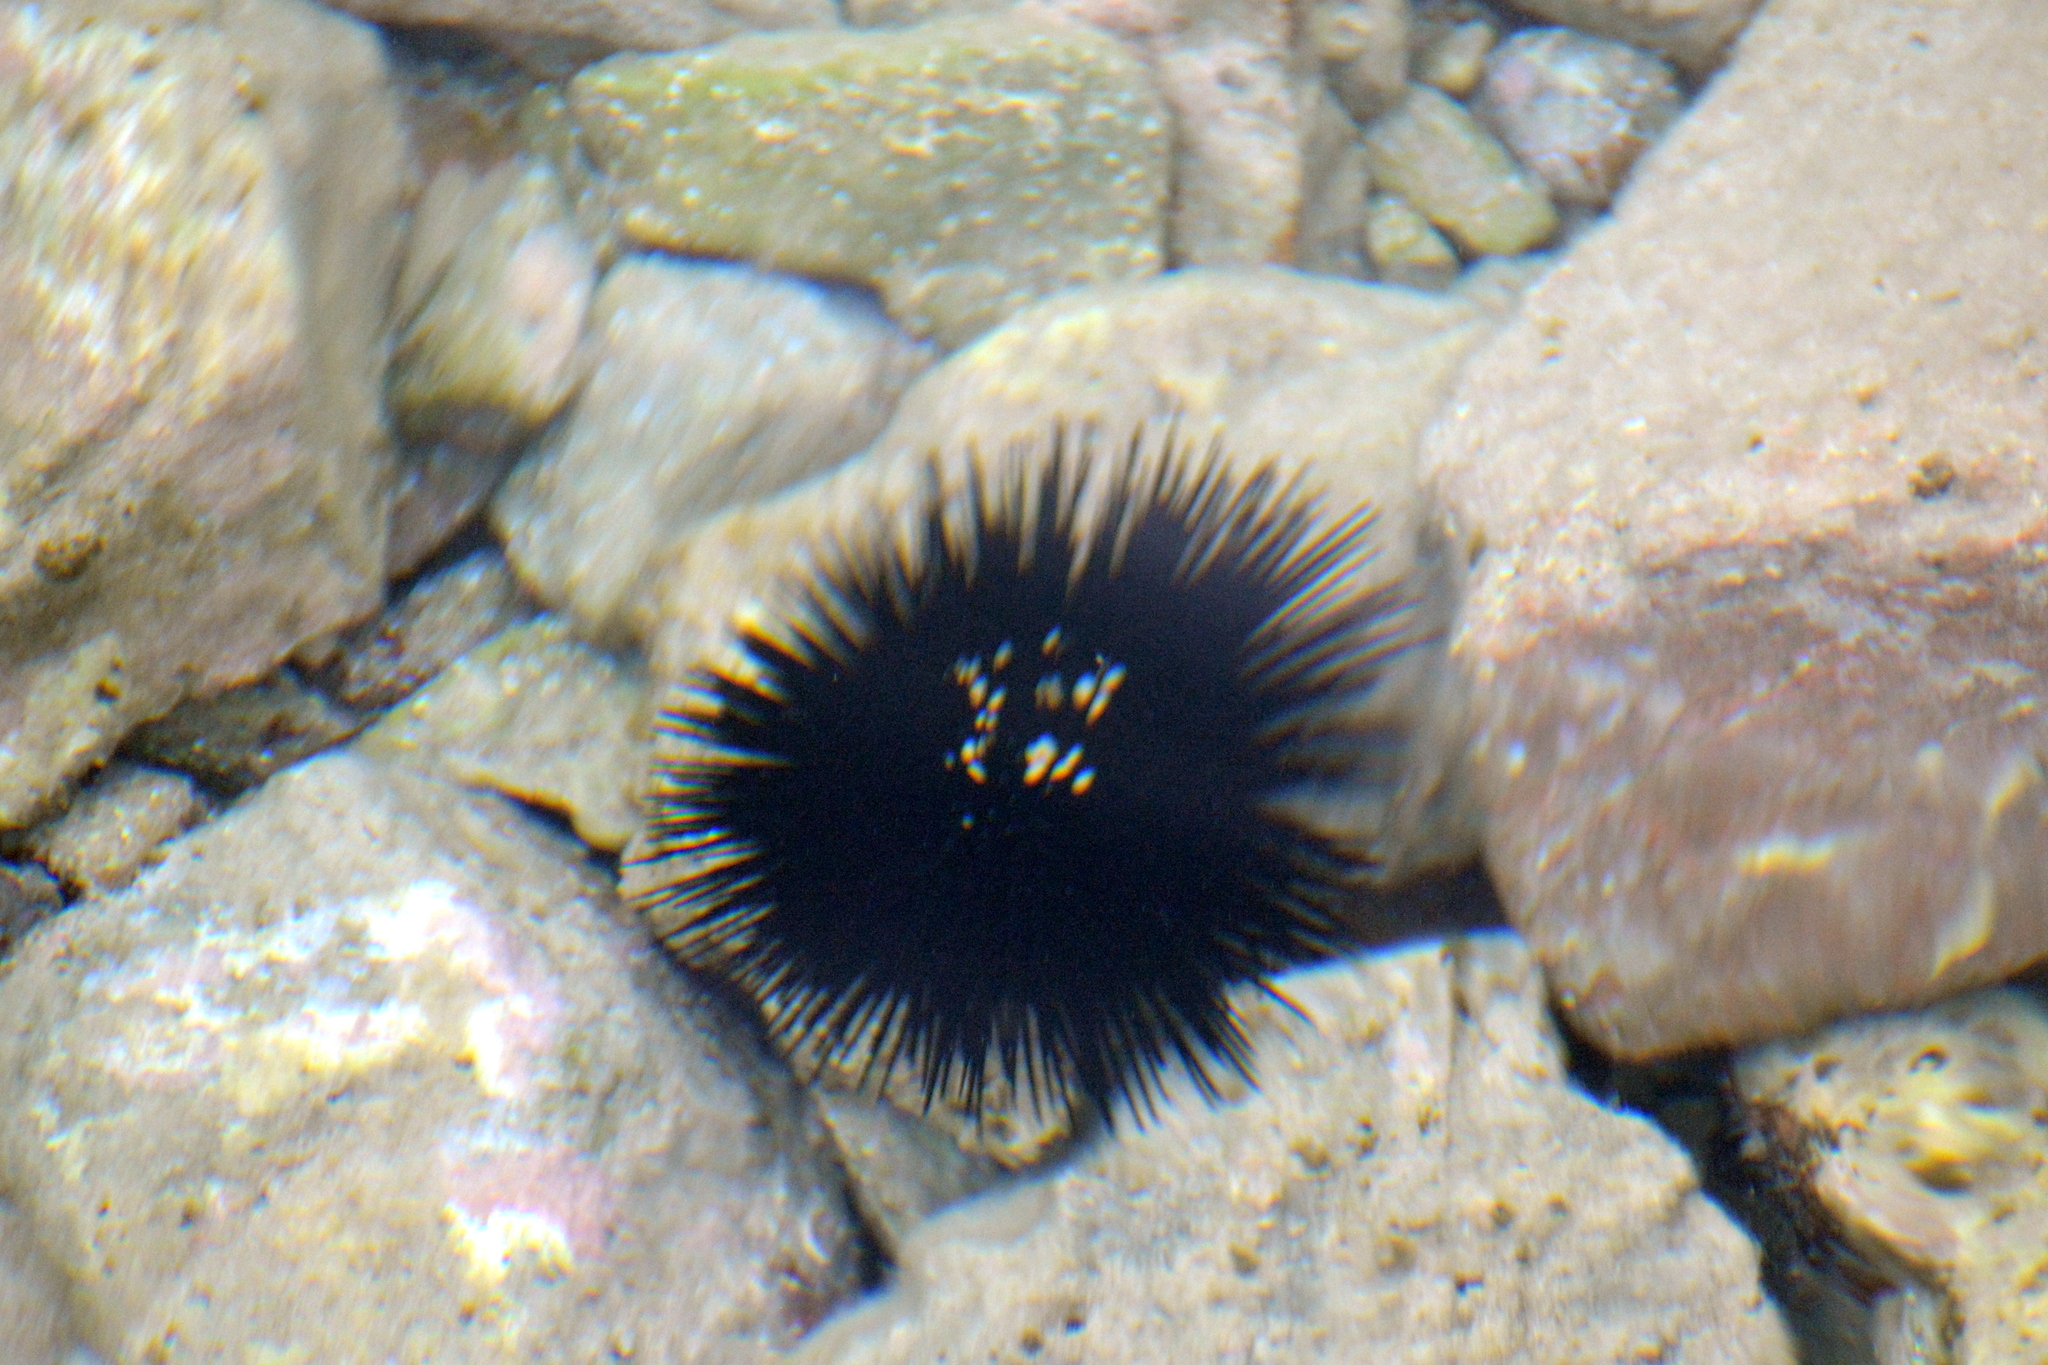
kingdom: Animalia
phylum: Echinodermata
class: Echinoidea
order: Arbacioida
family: Arbaciidae
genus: Arbacia
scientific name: Arbacia lixula
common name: Black sea urchin
